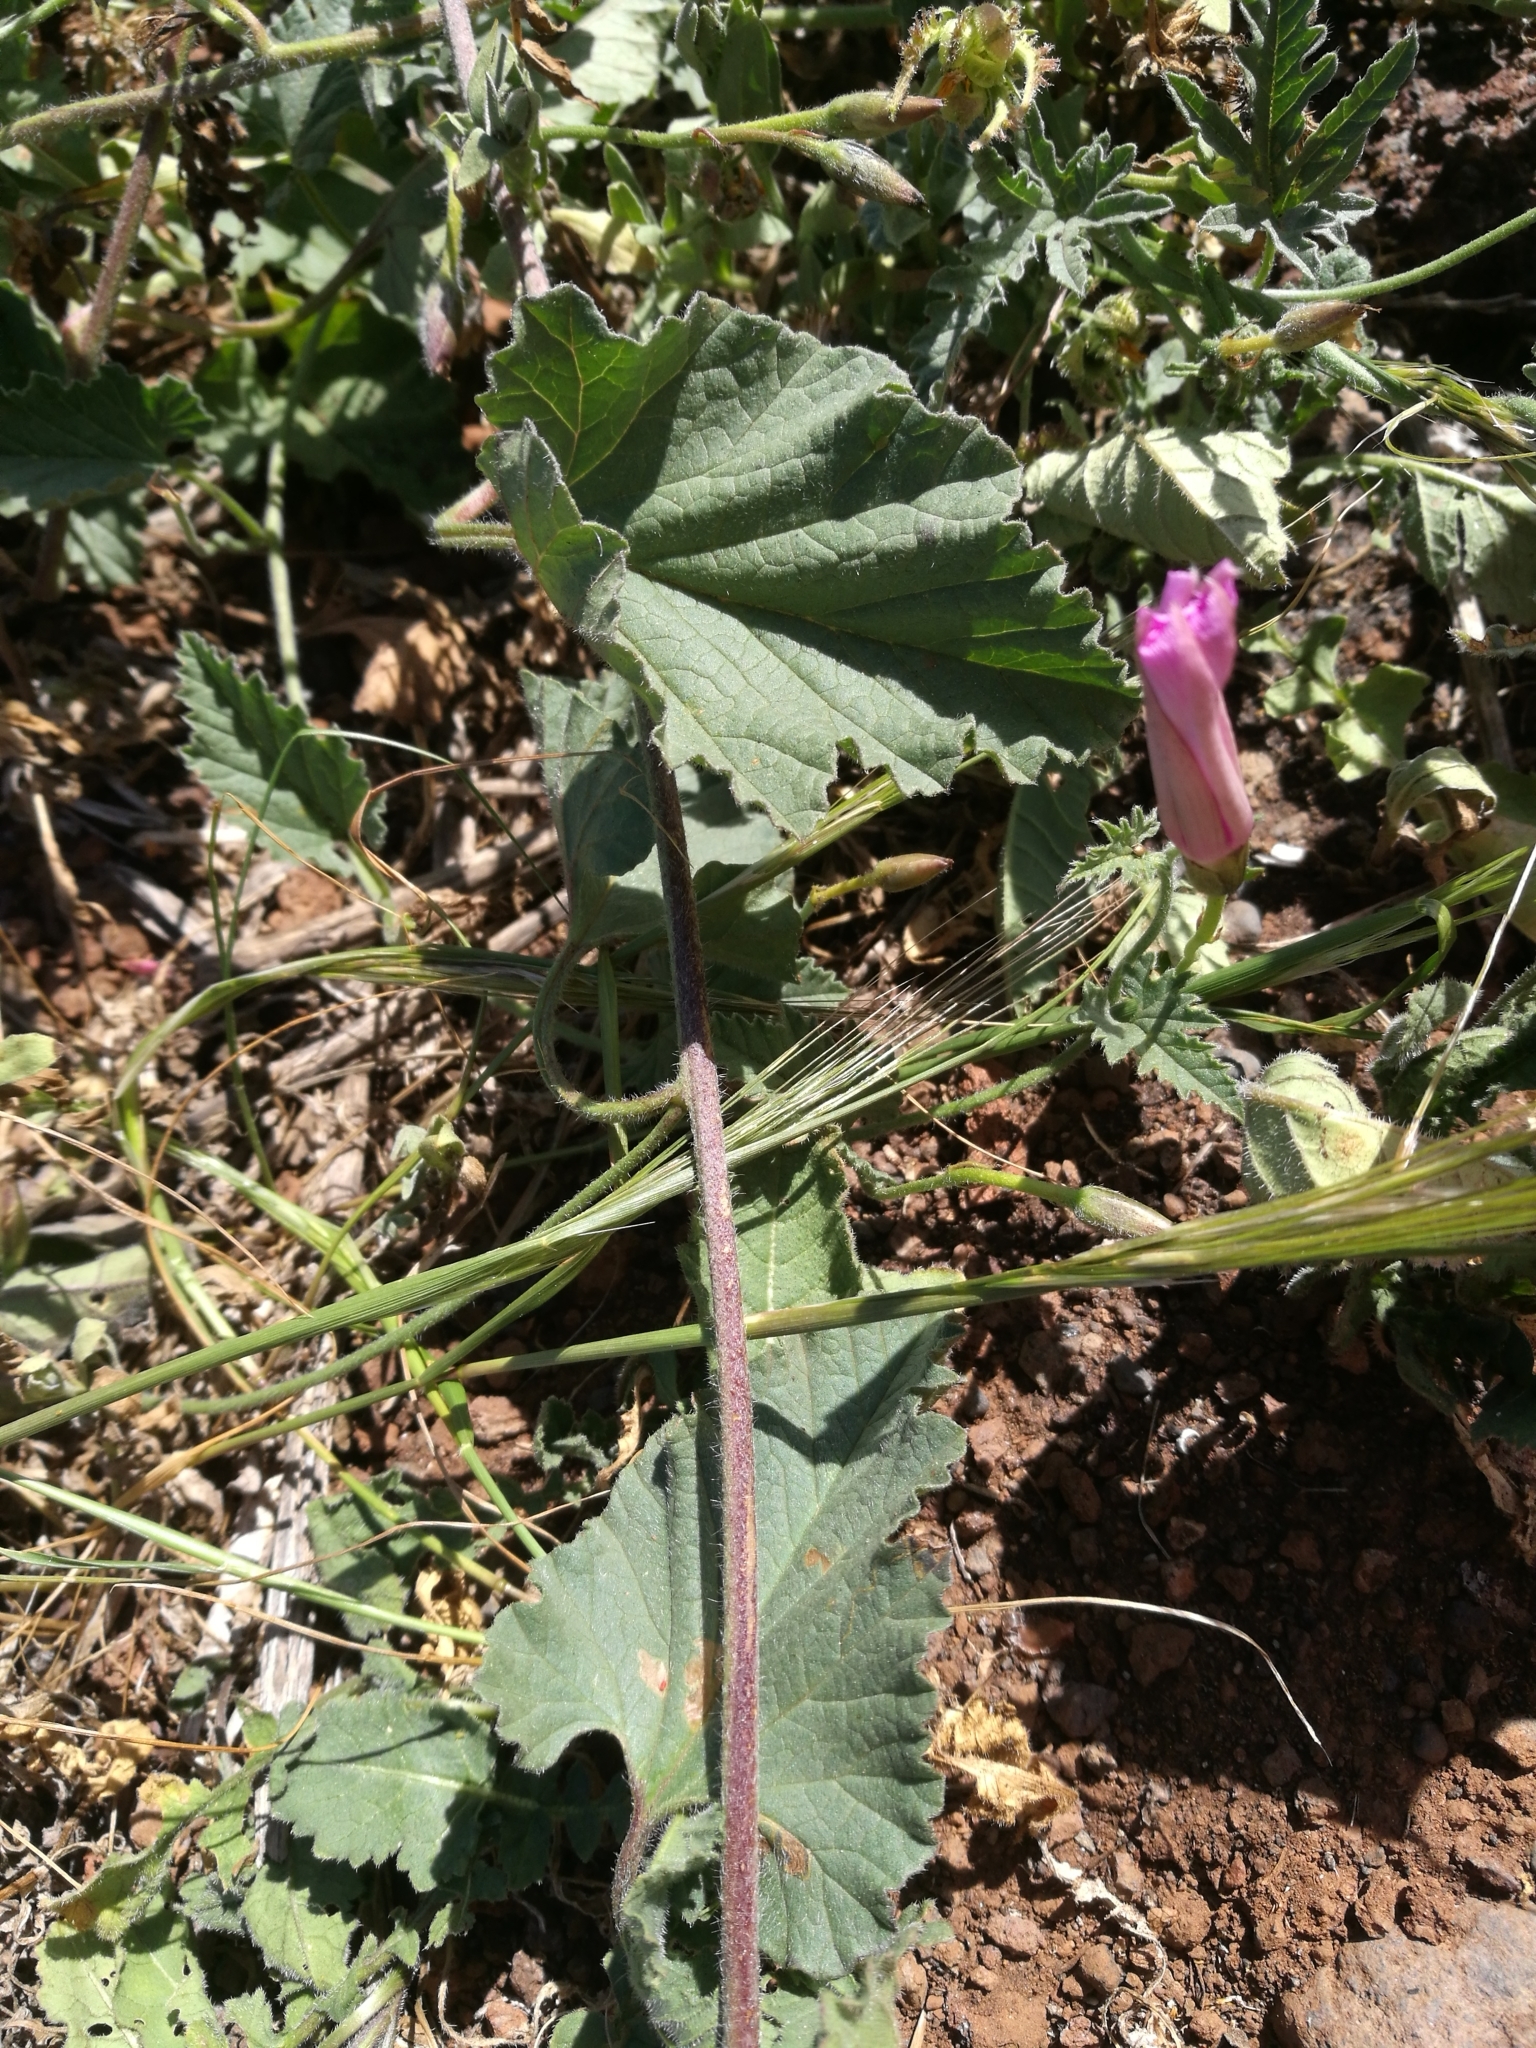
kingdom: Plantae
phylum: Tracheophyta
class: Magnoliopsida
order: Solanales
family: Convolvulaceae
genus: Convolvulus
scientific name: Convolvulus althaeoides
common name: Mallow bindweed
